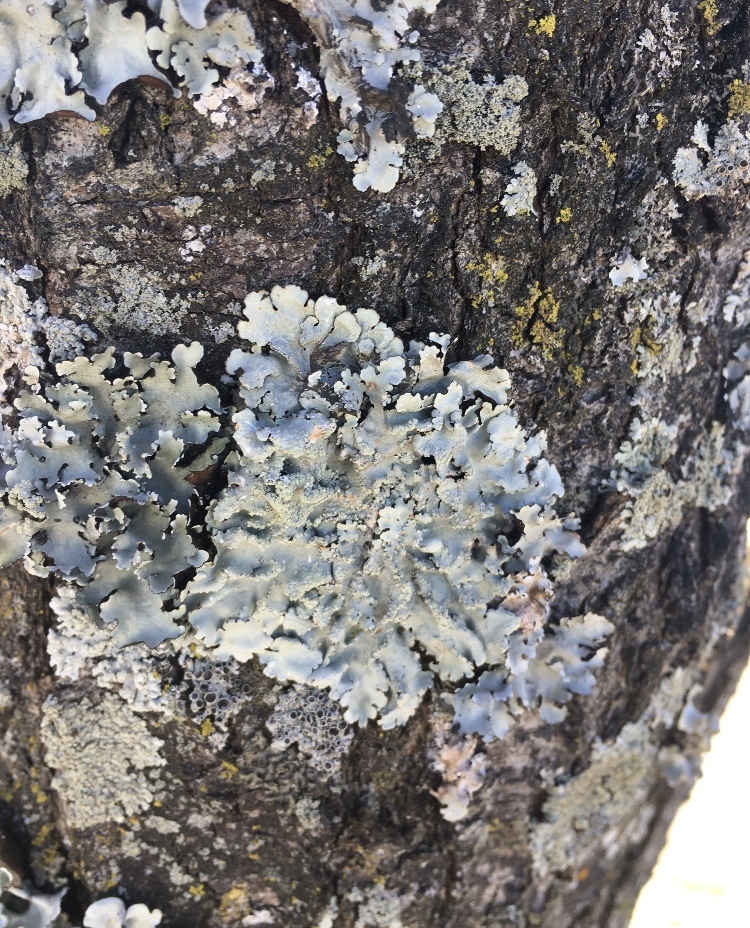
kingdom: Fungi
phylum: Ascomycota
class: Lecanoromycetes
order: Lecanorales
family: Parmeliaceae
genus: Canoparmelia
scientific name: Canoparmelia texana
